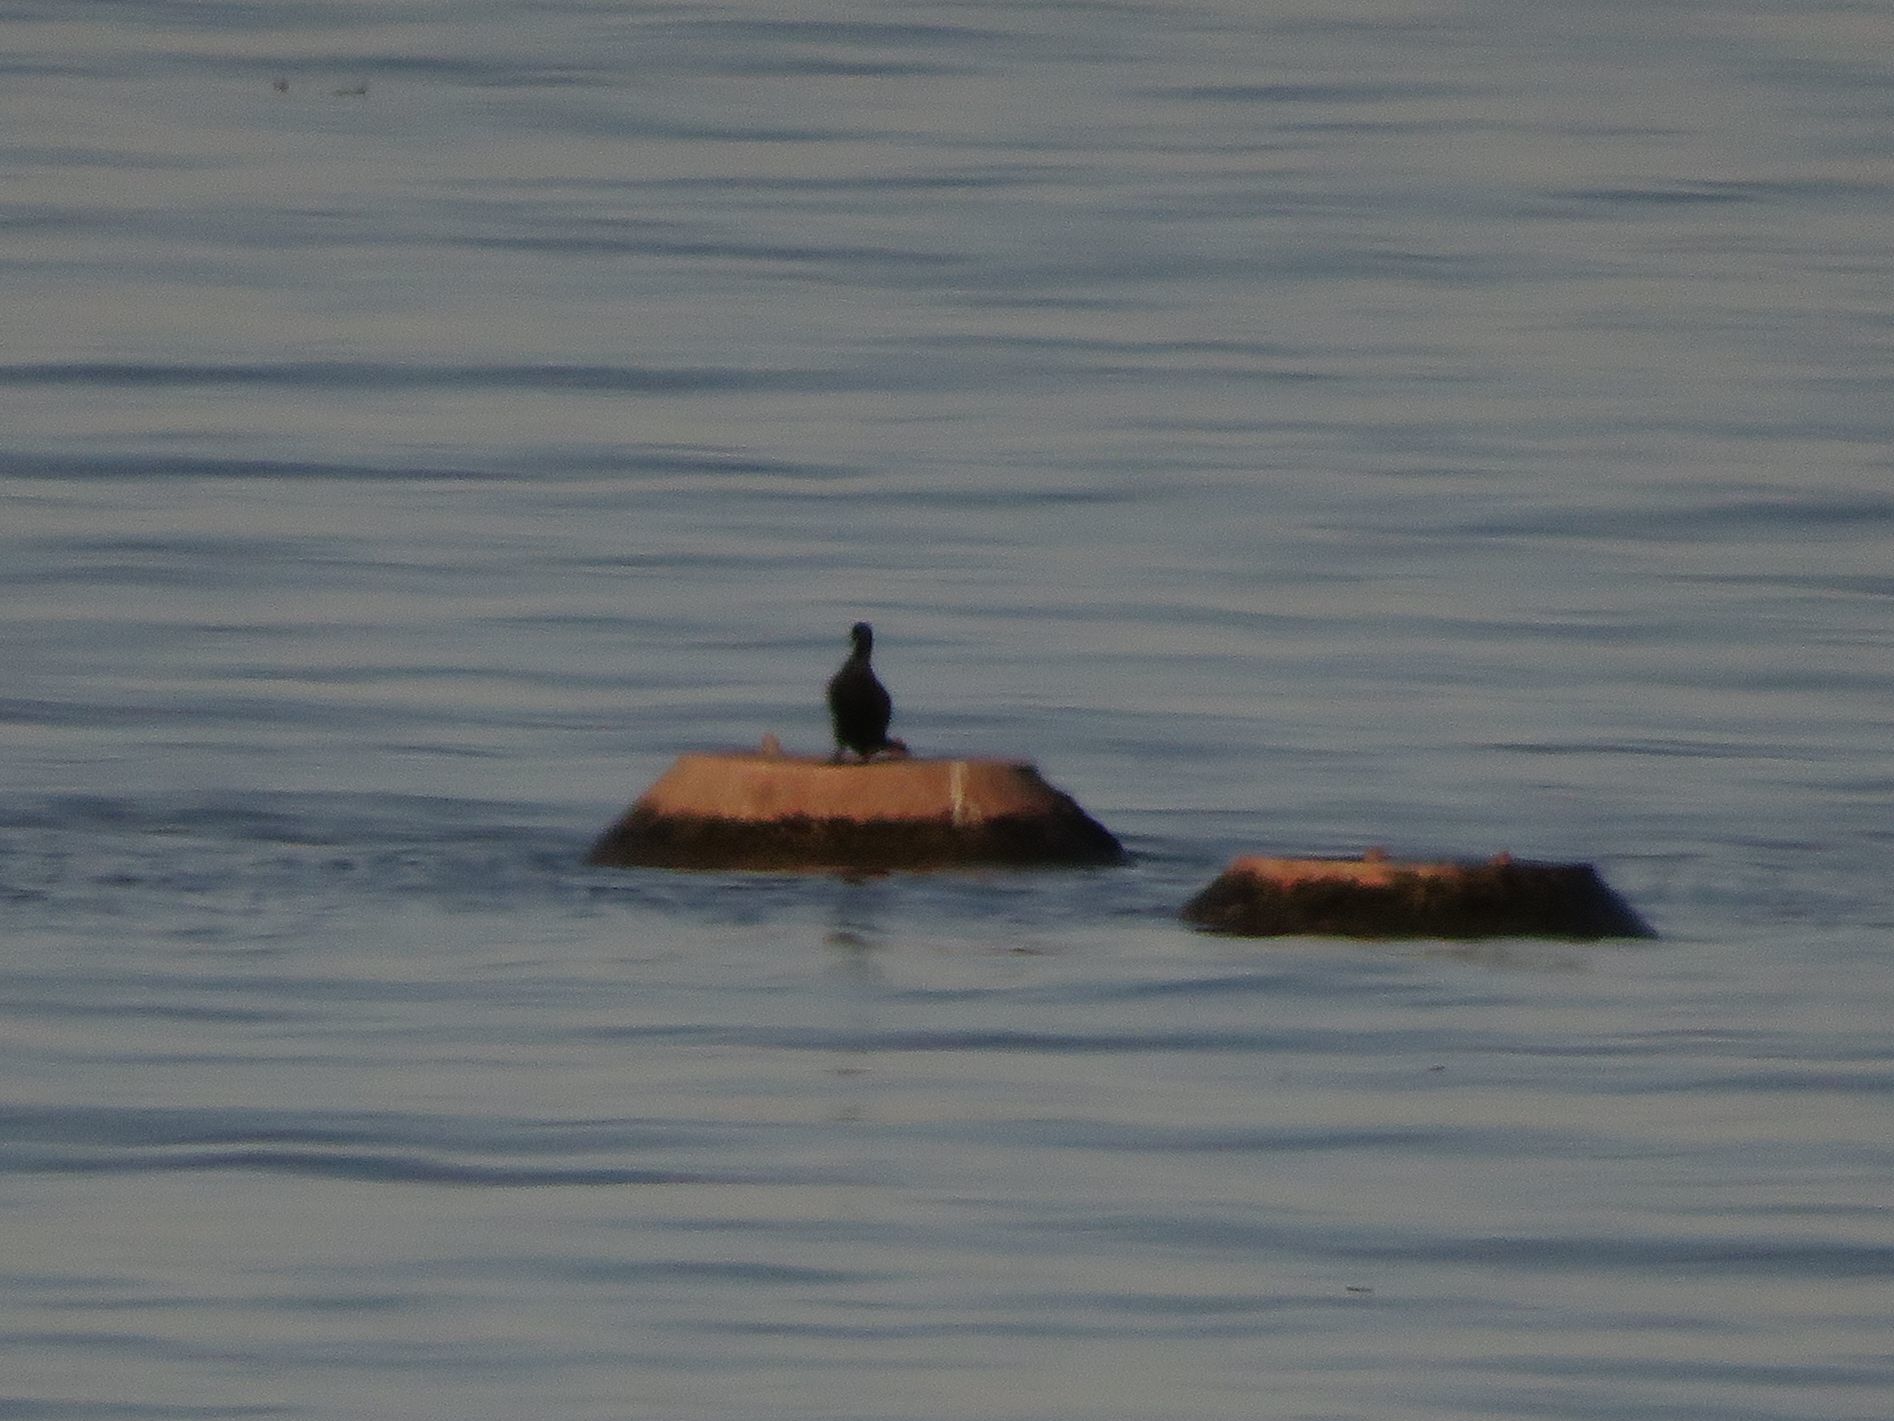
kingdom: Animalia
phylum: Chordata
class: Aves
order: Suliformes
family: Phalacrocoracidae
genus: Phalacrocorax
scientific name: Phalacrocorax brasilianus
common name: Neotropic cormorant
